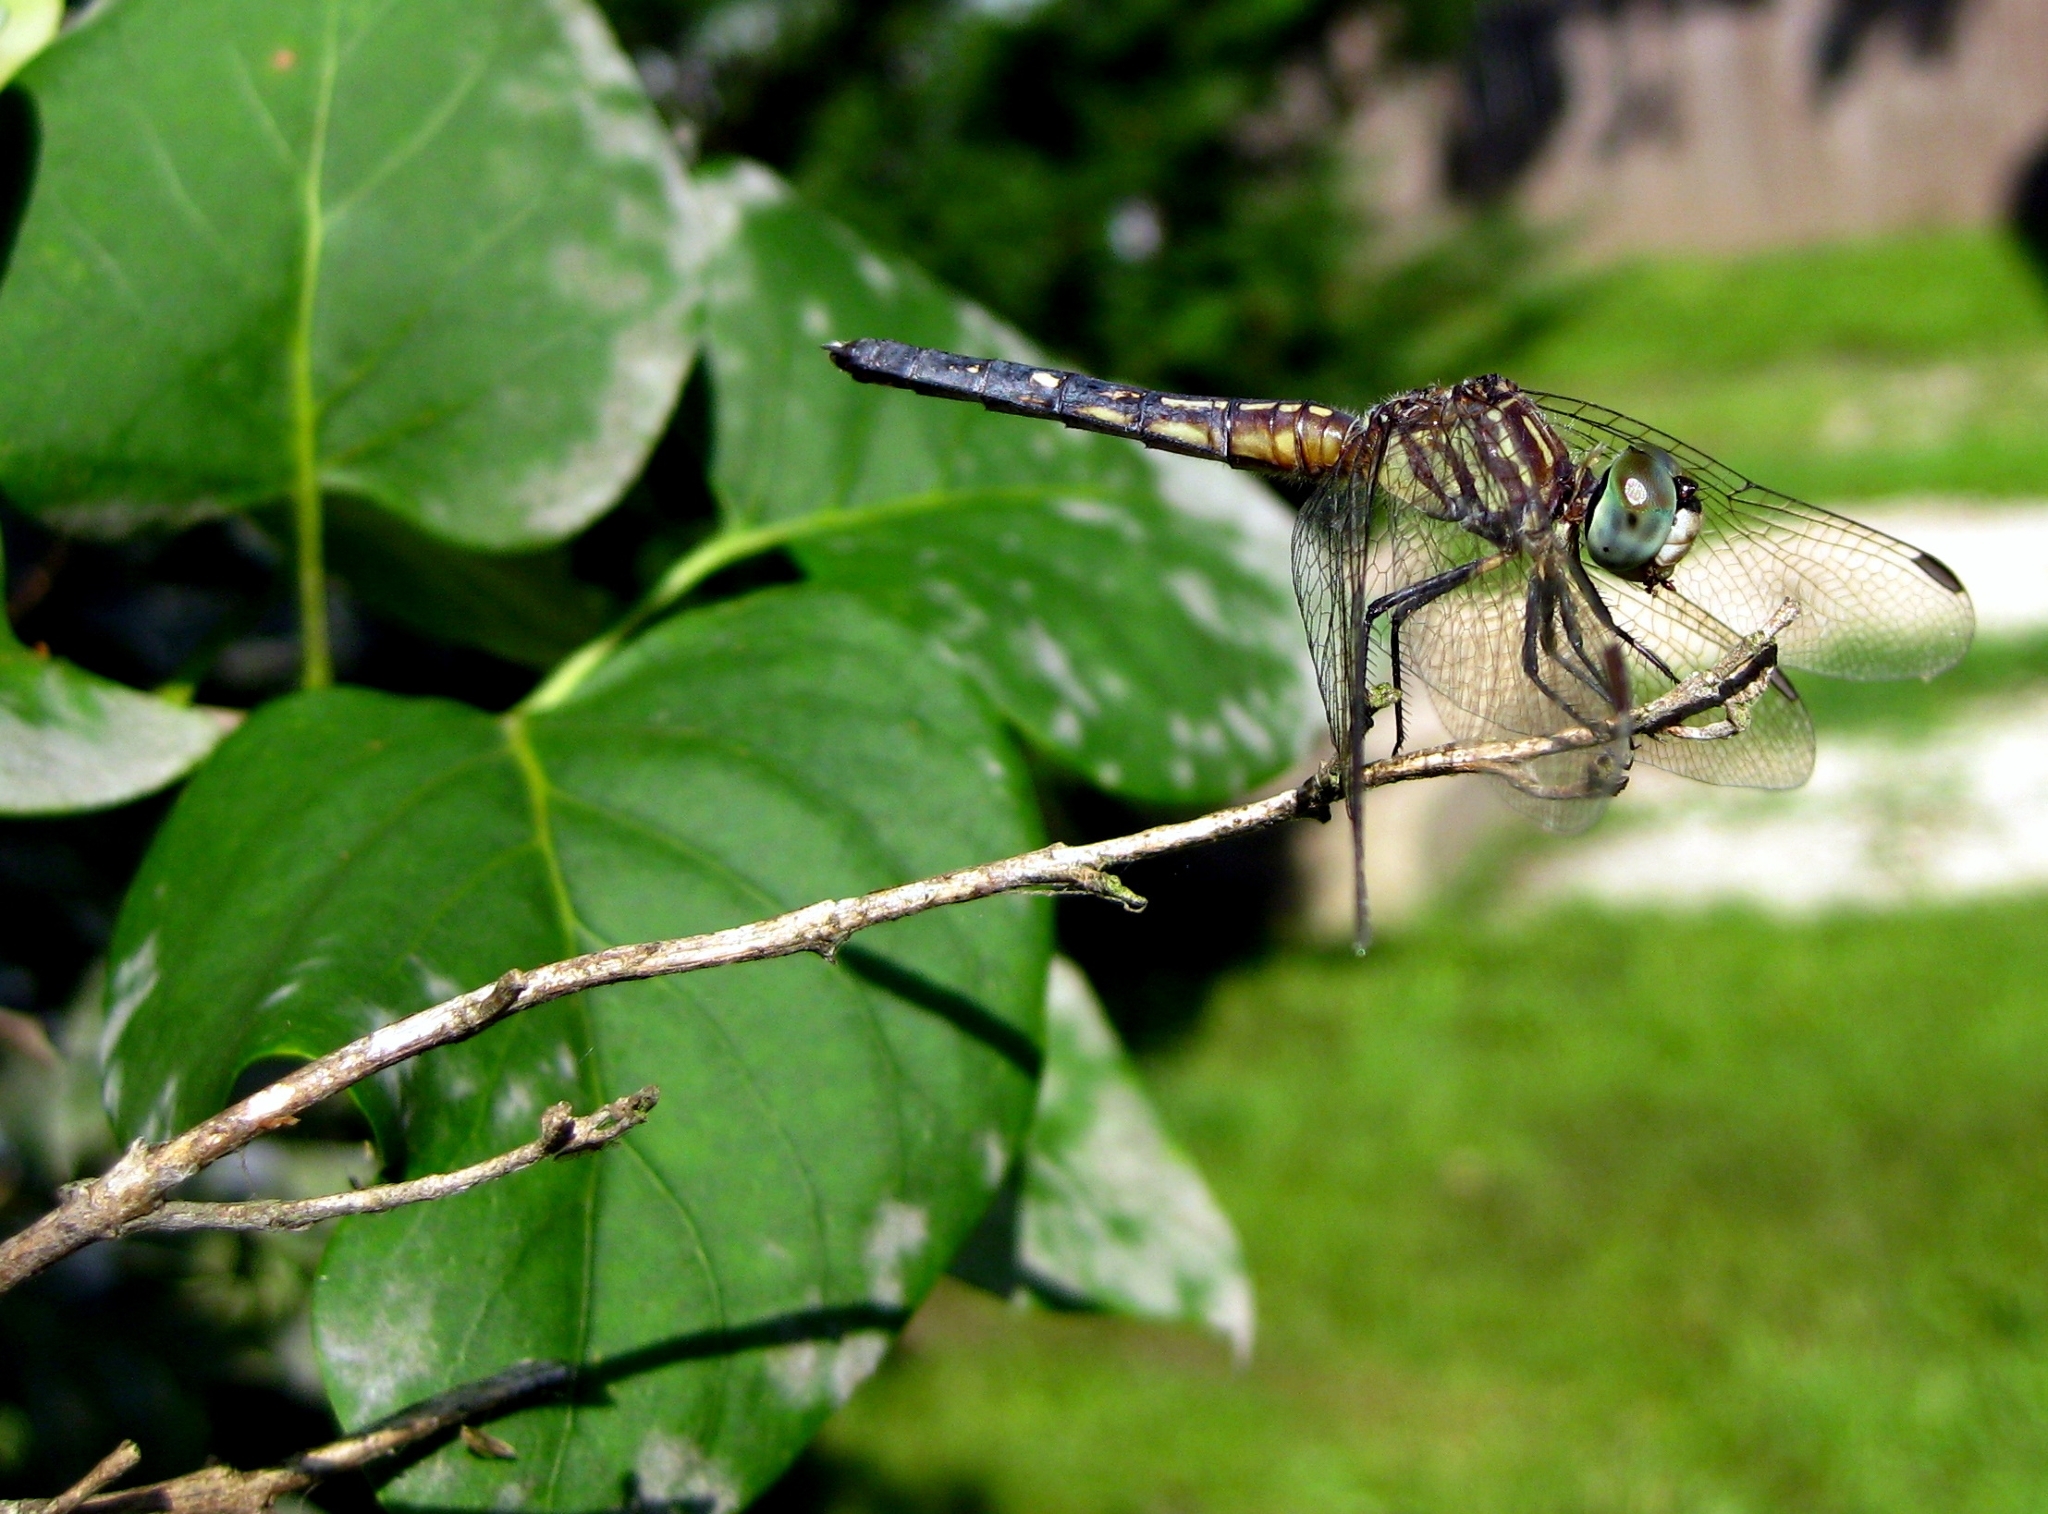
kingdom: Animalia
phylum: Arthropoda
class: Insecta
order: Odonata
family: Libellulidae
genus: Pachydiplax
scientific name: Pachydiplax longipennis
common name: Blue dasher
